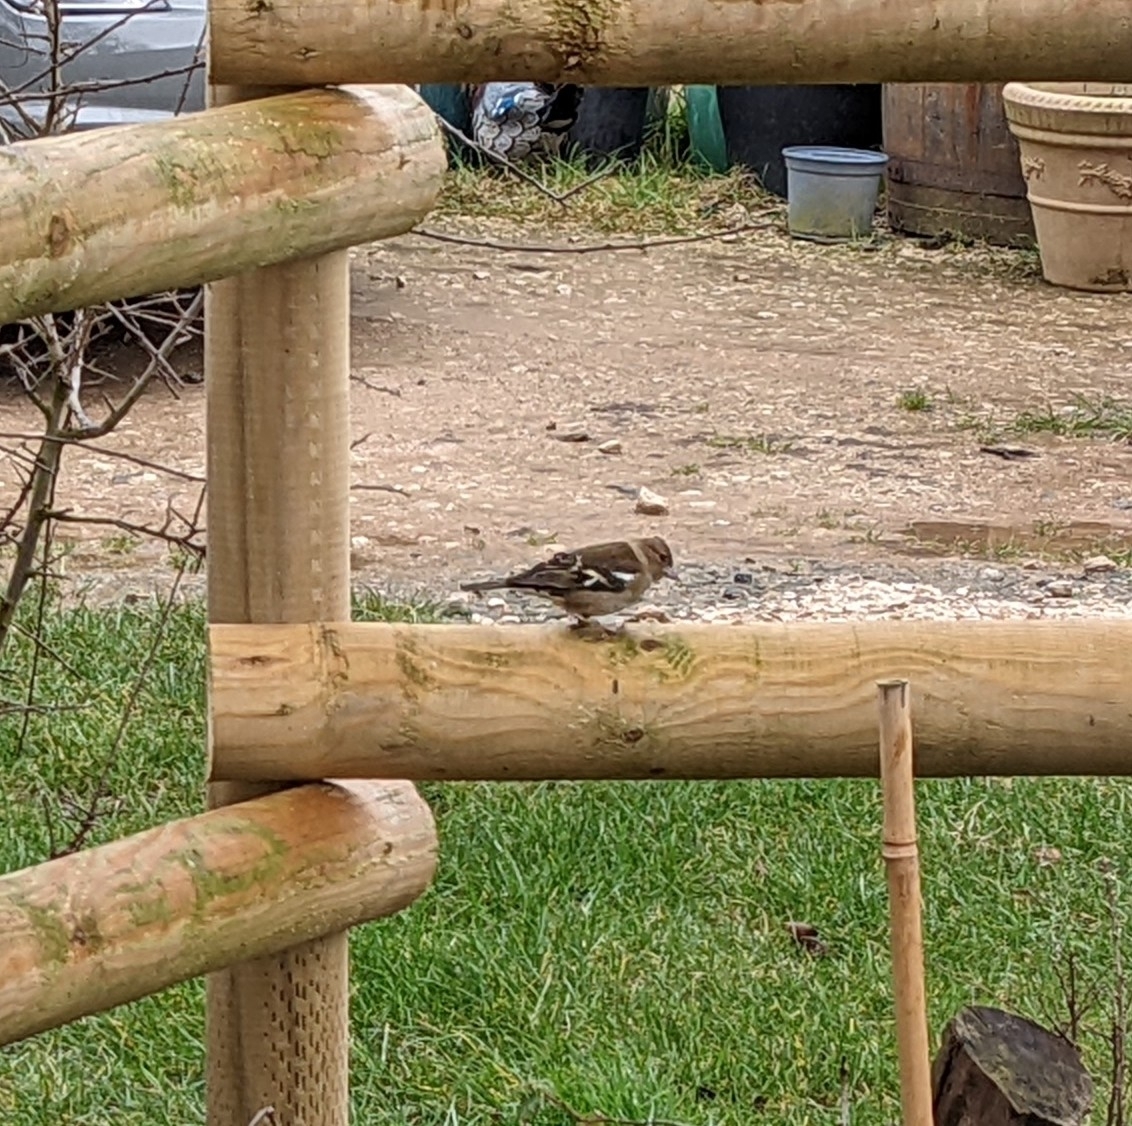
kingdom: Animalia
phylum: Chordata
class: Aves
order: Passeriformes
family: Fringillidae
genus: Fringilla
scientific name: Fringilla coelebs
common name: Common chaffinch
